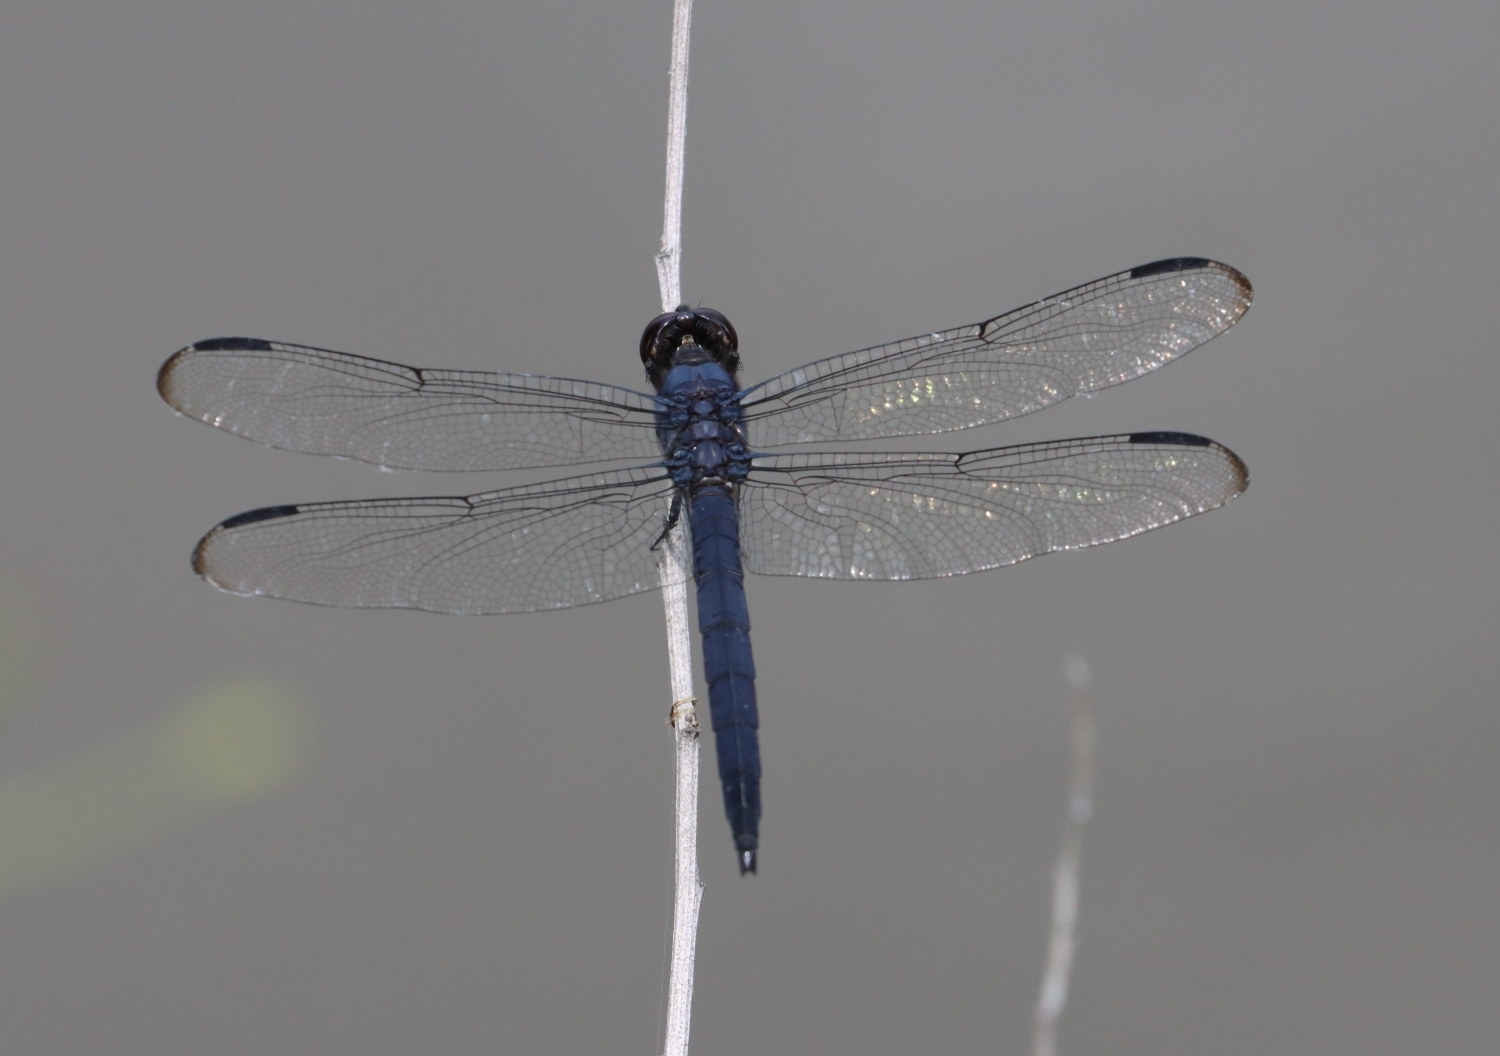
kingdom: Animalia
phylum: Arthropoda
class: Insecta
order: Odonata
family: Libellulidae
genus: Libellula
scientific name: Libellula incesta
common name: Slaty skimmer
